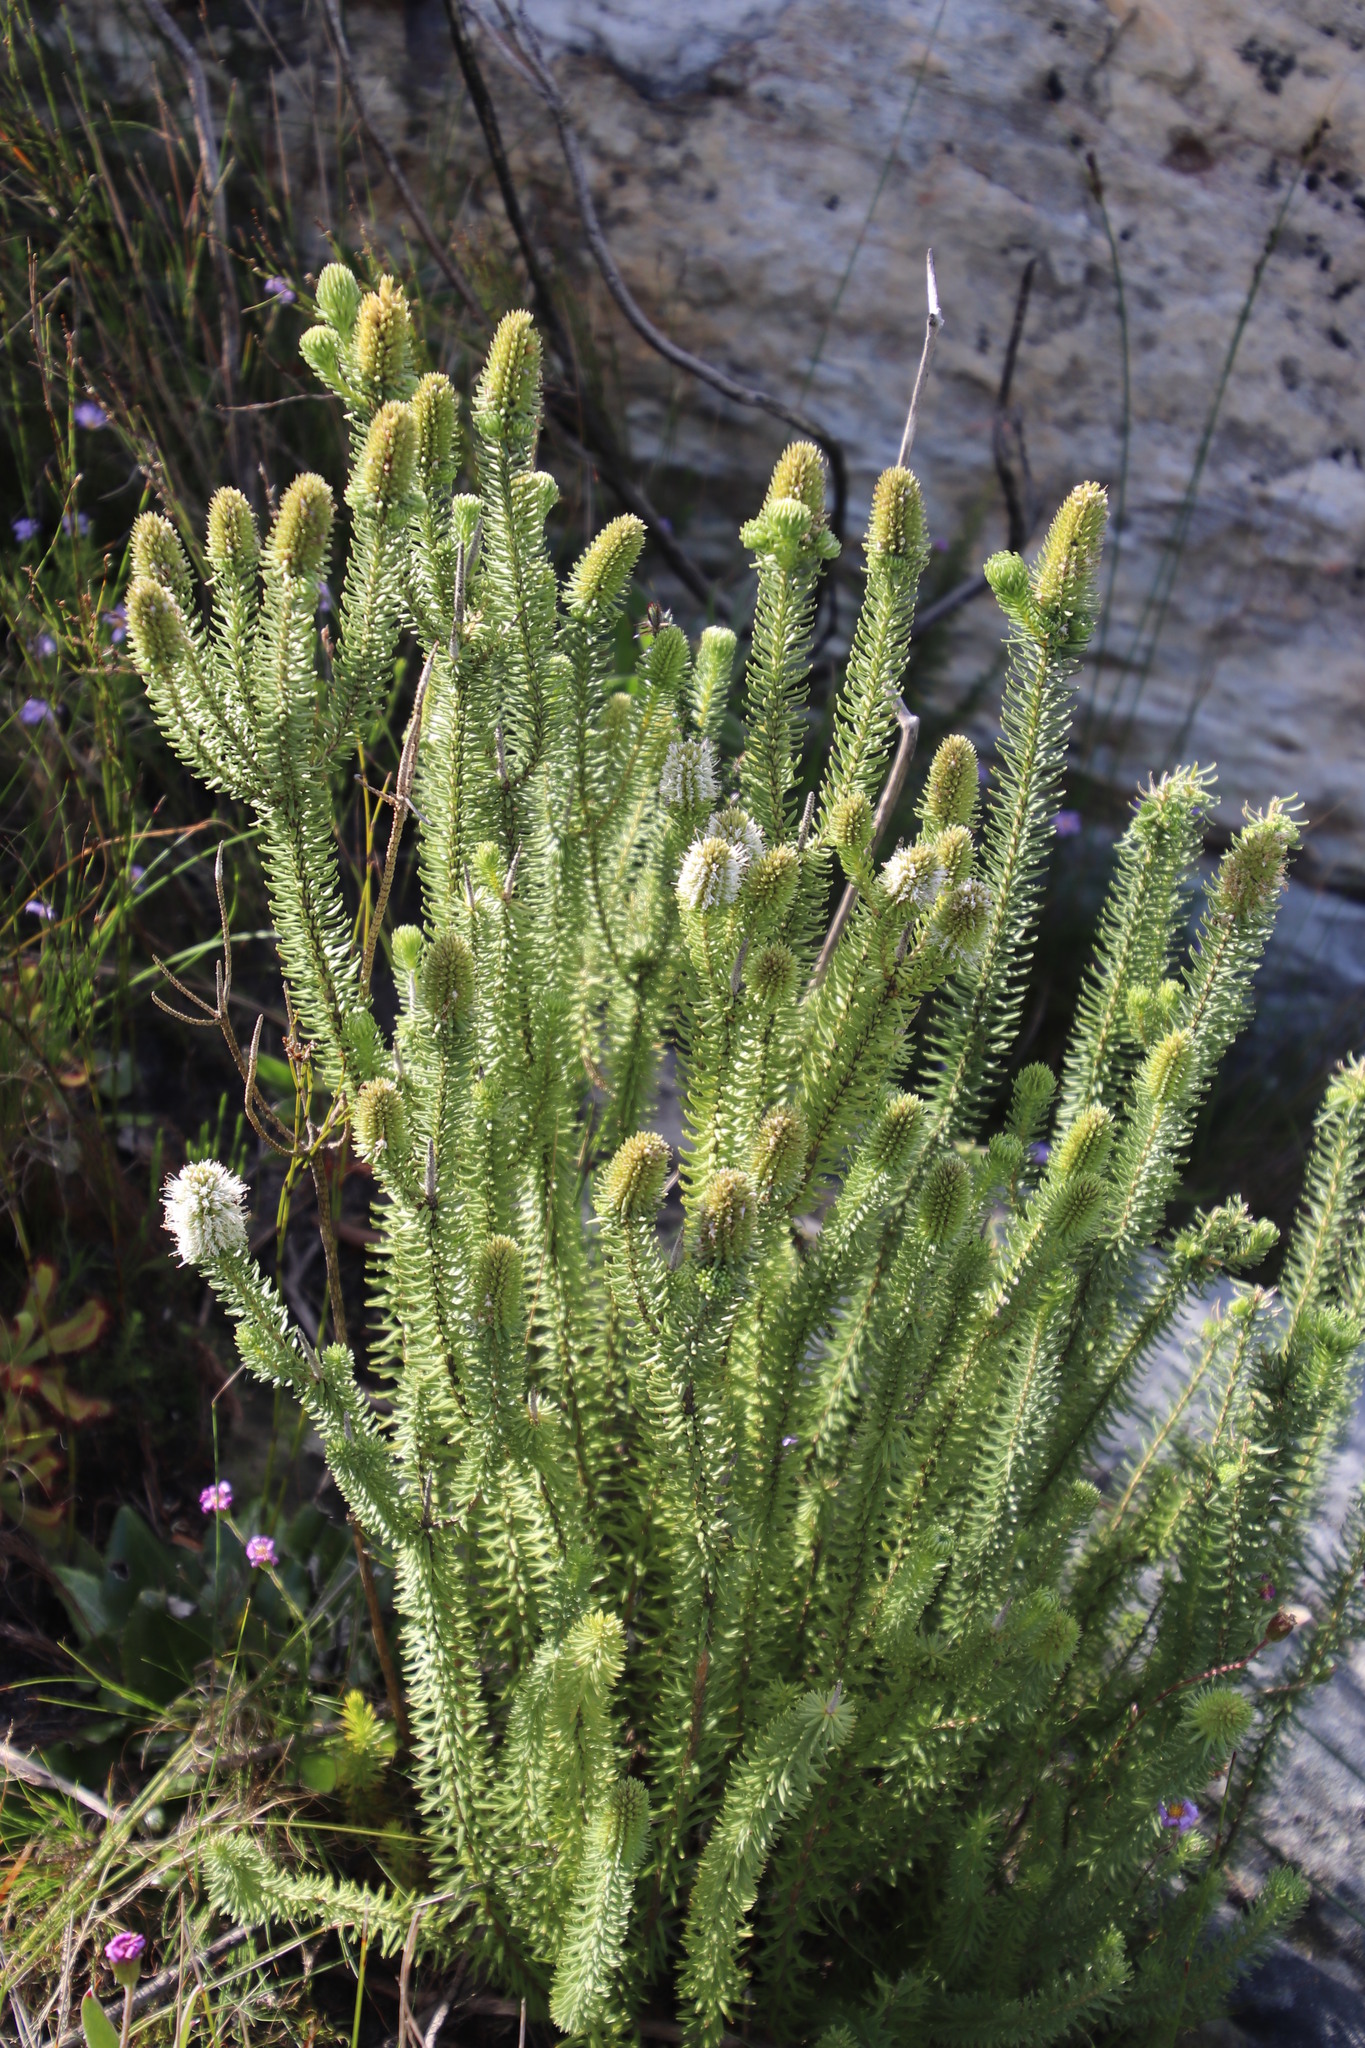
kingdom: Plantae
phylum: Tracheophyta
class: Magnoliopsida
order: Lamiales
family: Stilbaceae
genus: Stilbe
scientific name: Stilbe vestita
